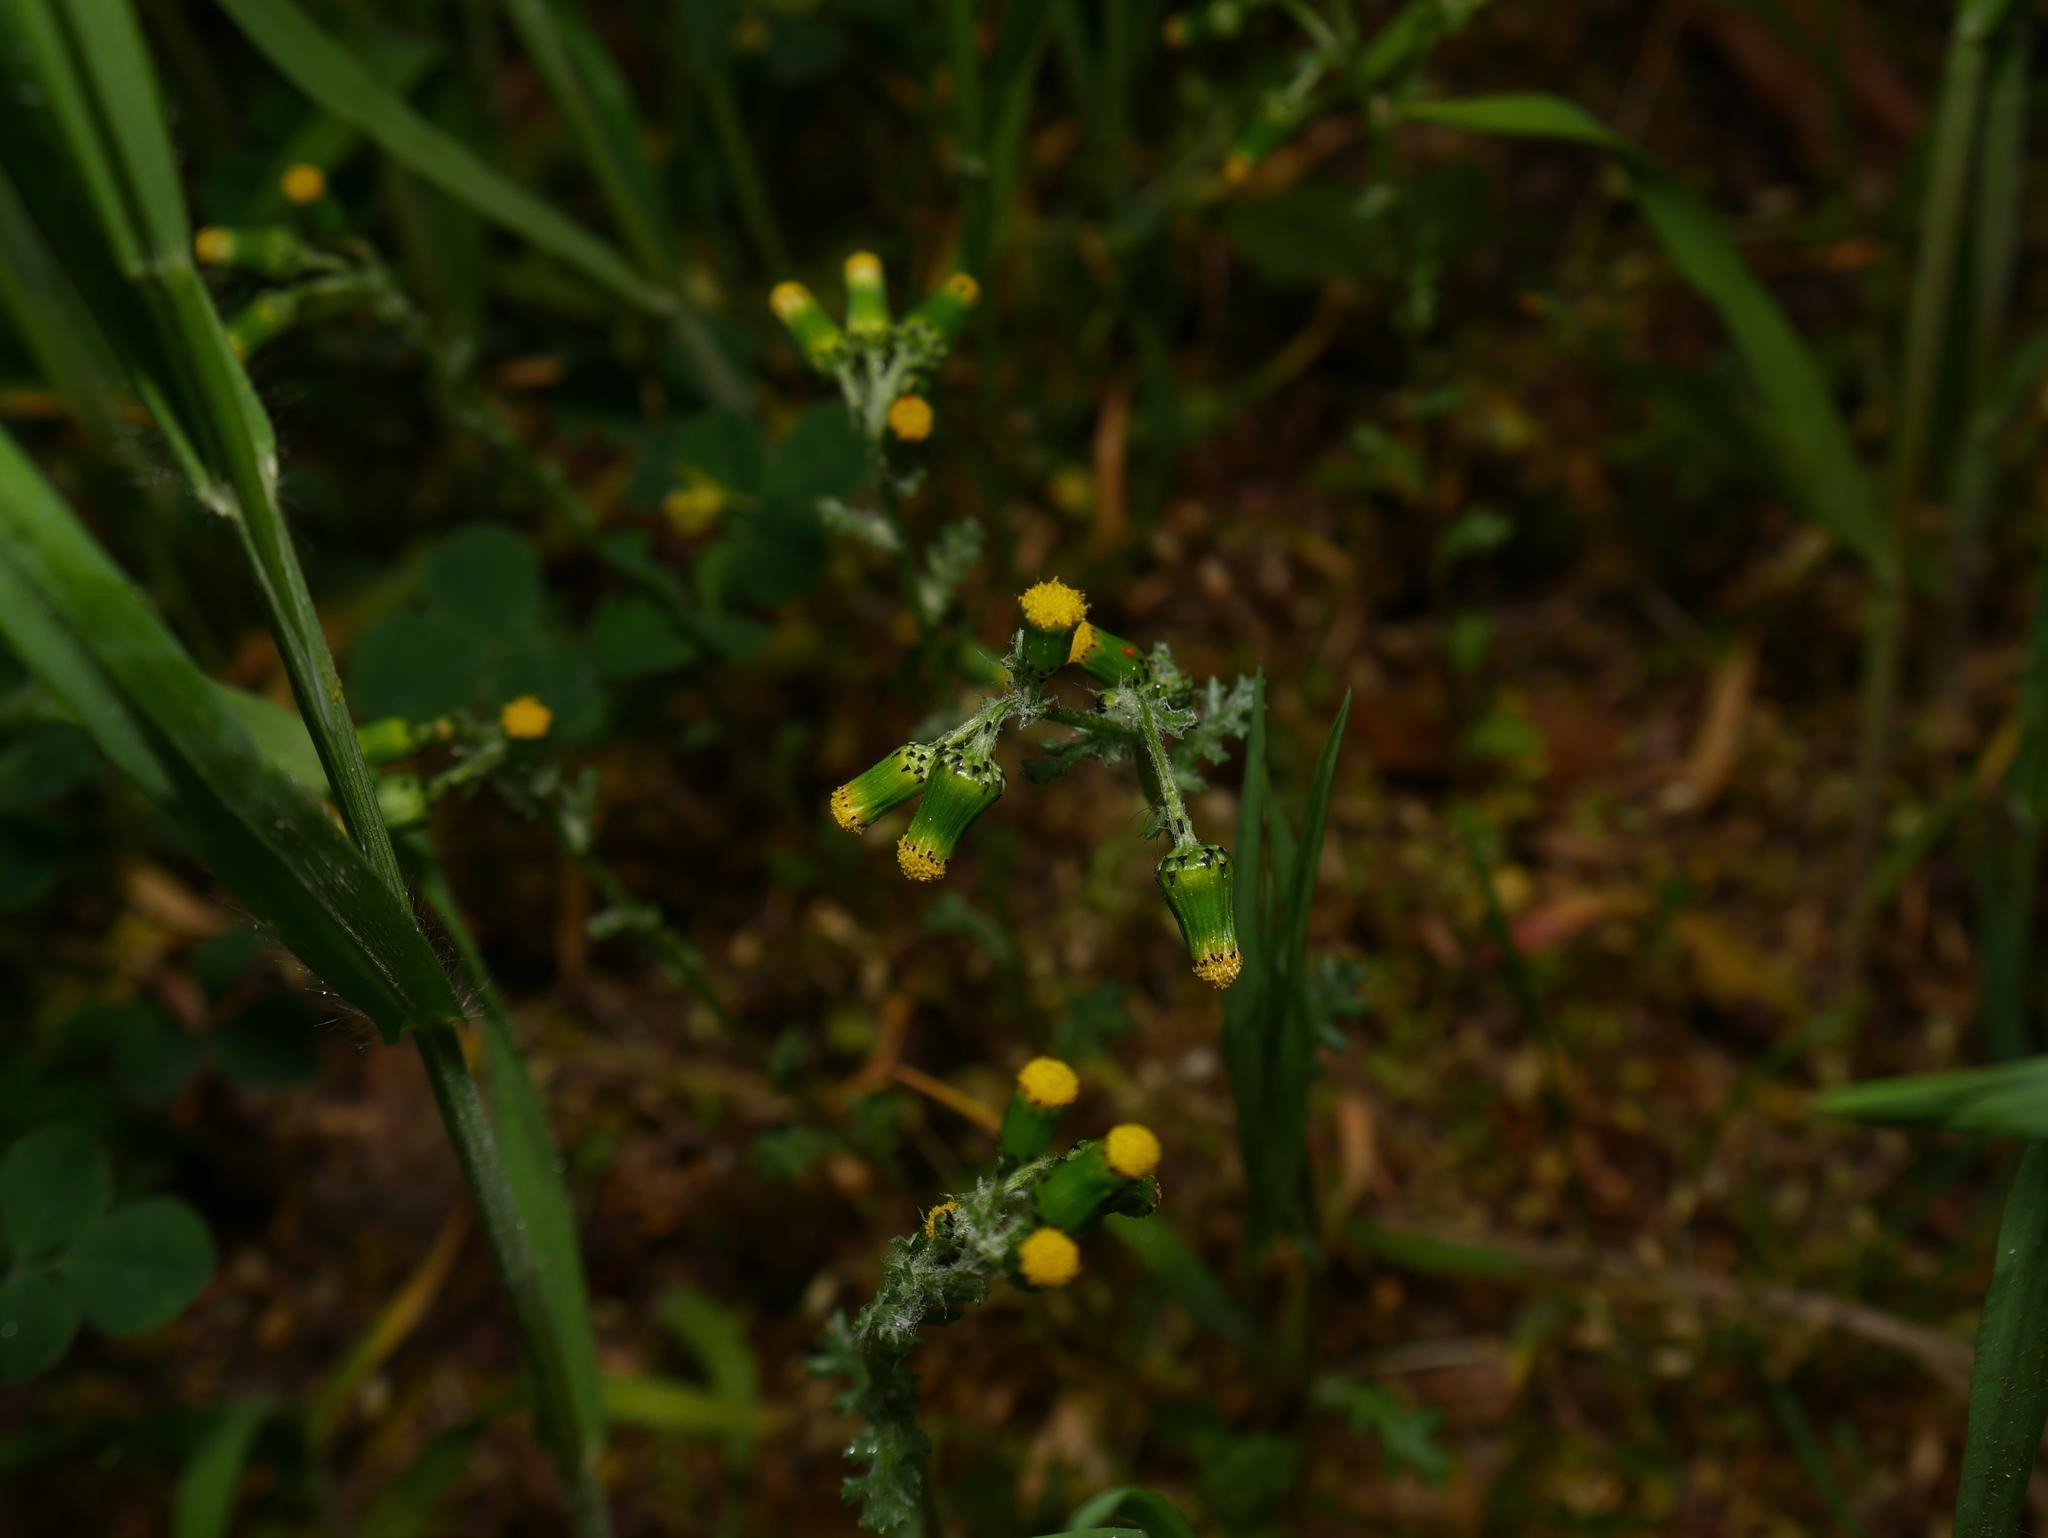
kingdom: Plantae
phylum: Tracheophyta
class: Magnoliopsida
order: Asterales
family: Asteraceae
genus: Senecio
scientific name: Senecio vulgaris
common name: Old-man-in-the-spring
